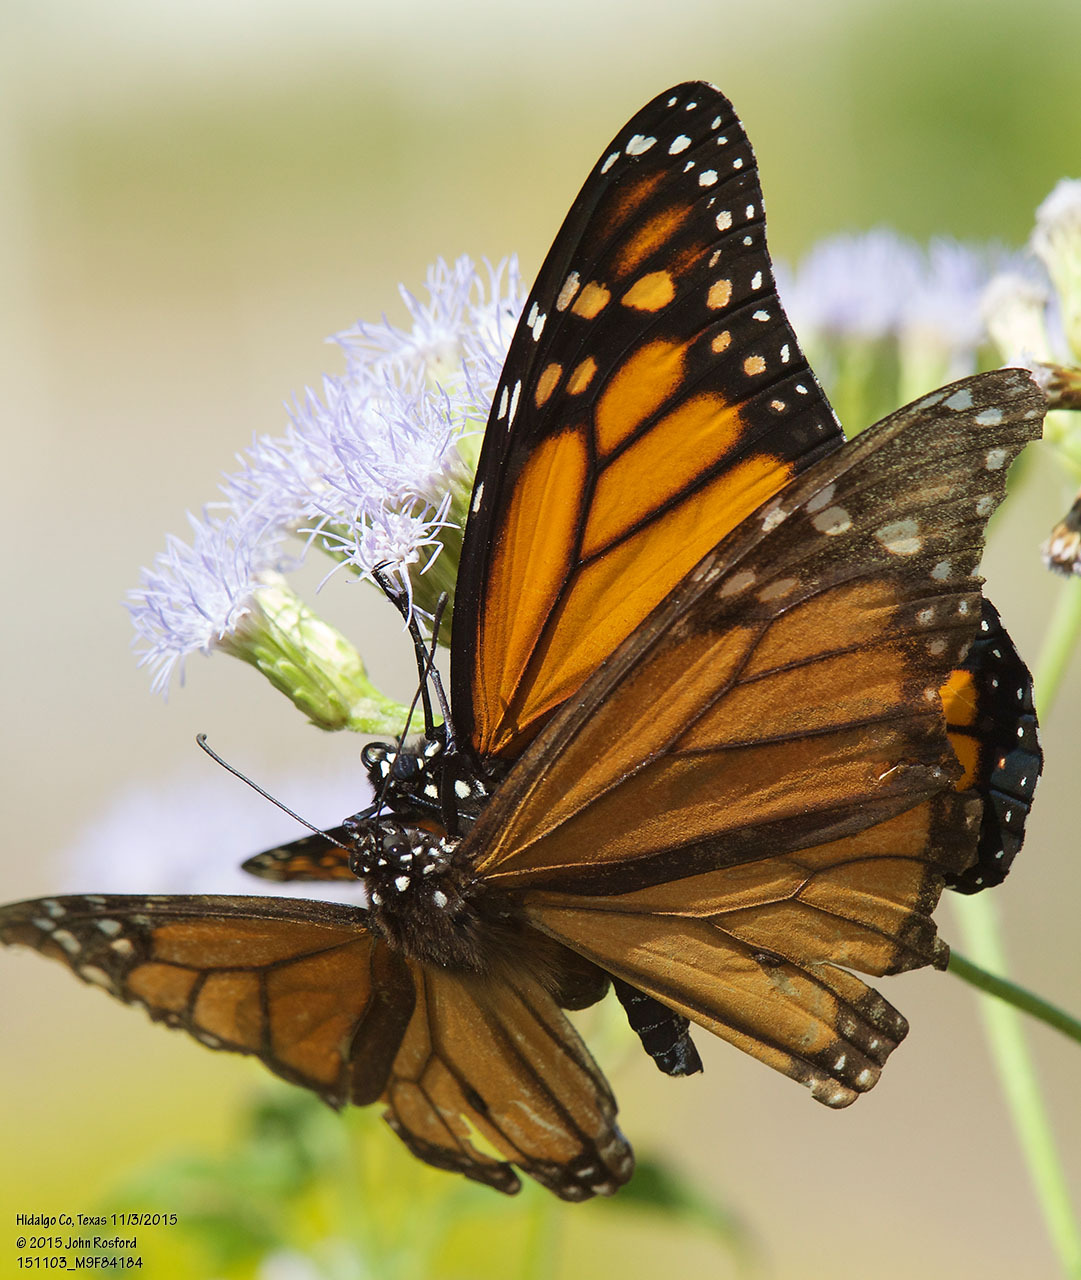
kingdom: Animalia
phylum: Arthropoda
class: Insecta
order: Lepidoptera
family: Nymphalidae
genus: Danaus
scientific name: Danaus plexippus
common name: Monarch
